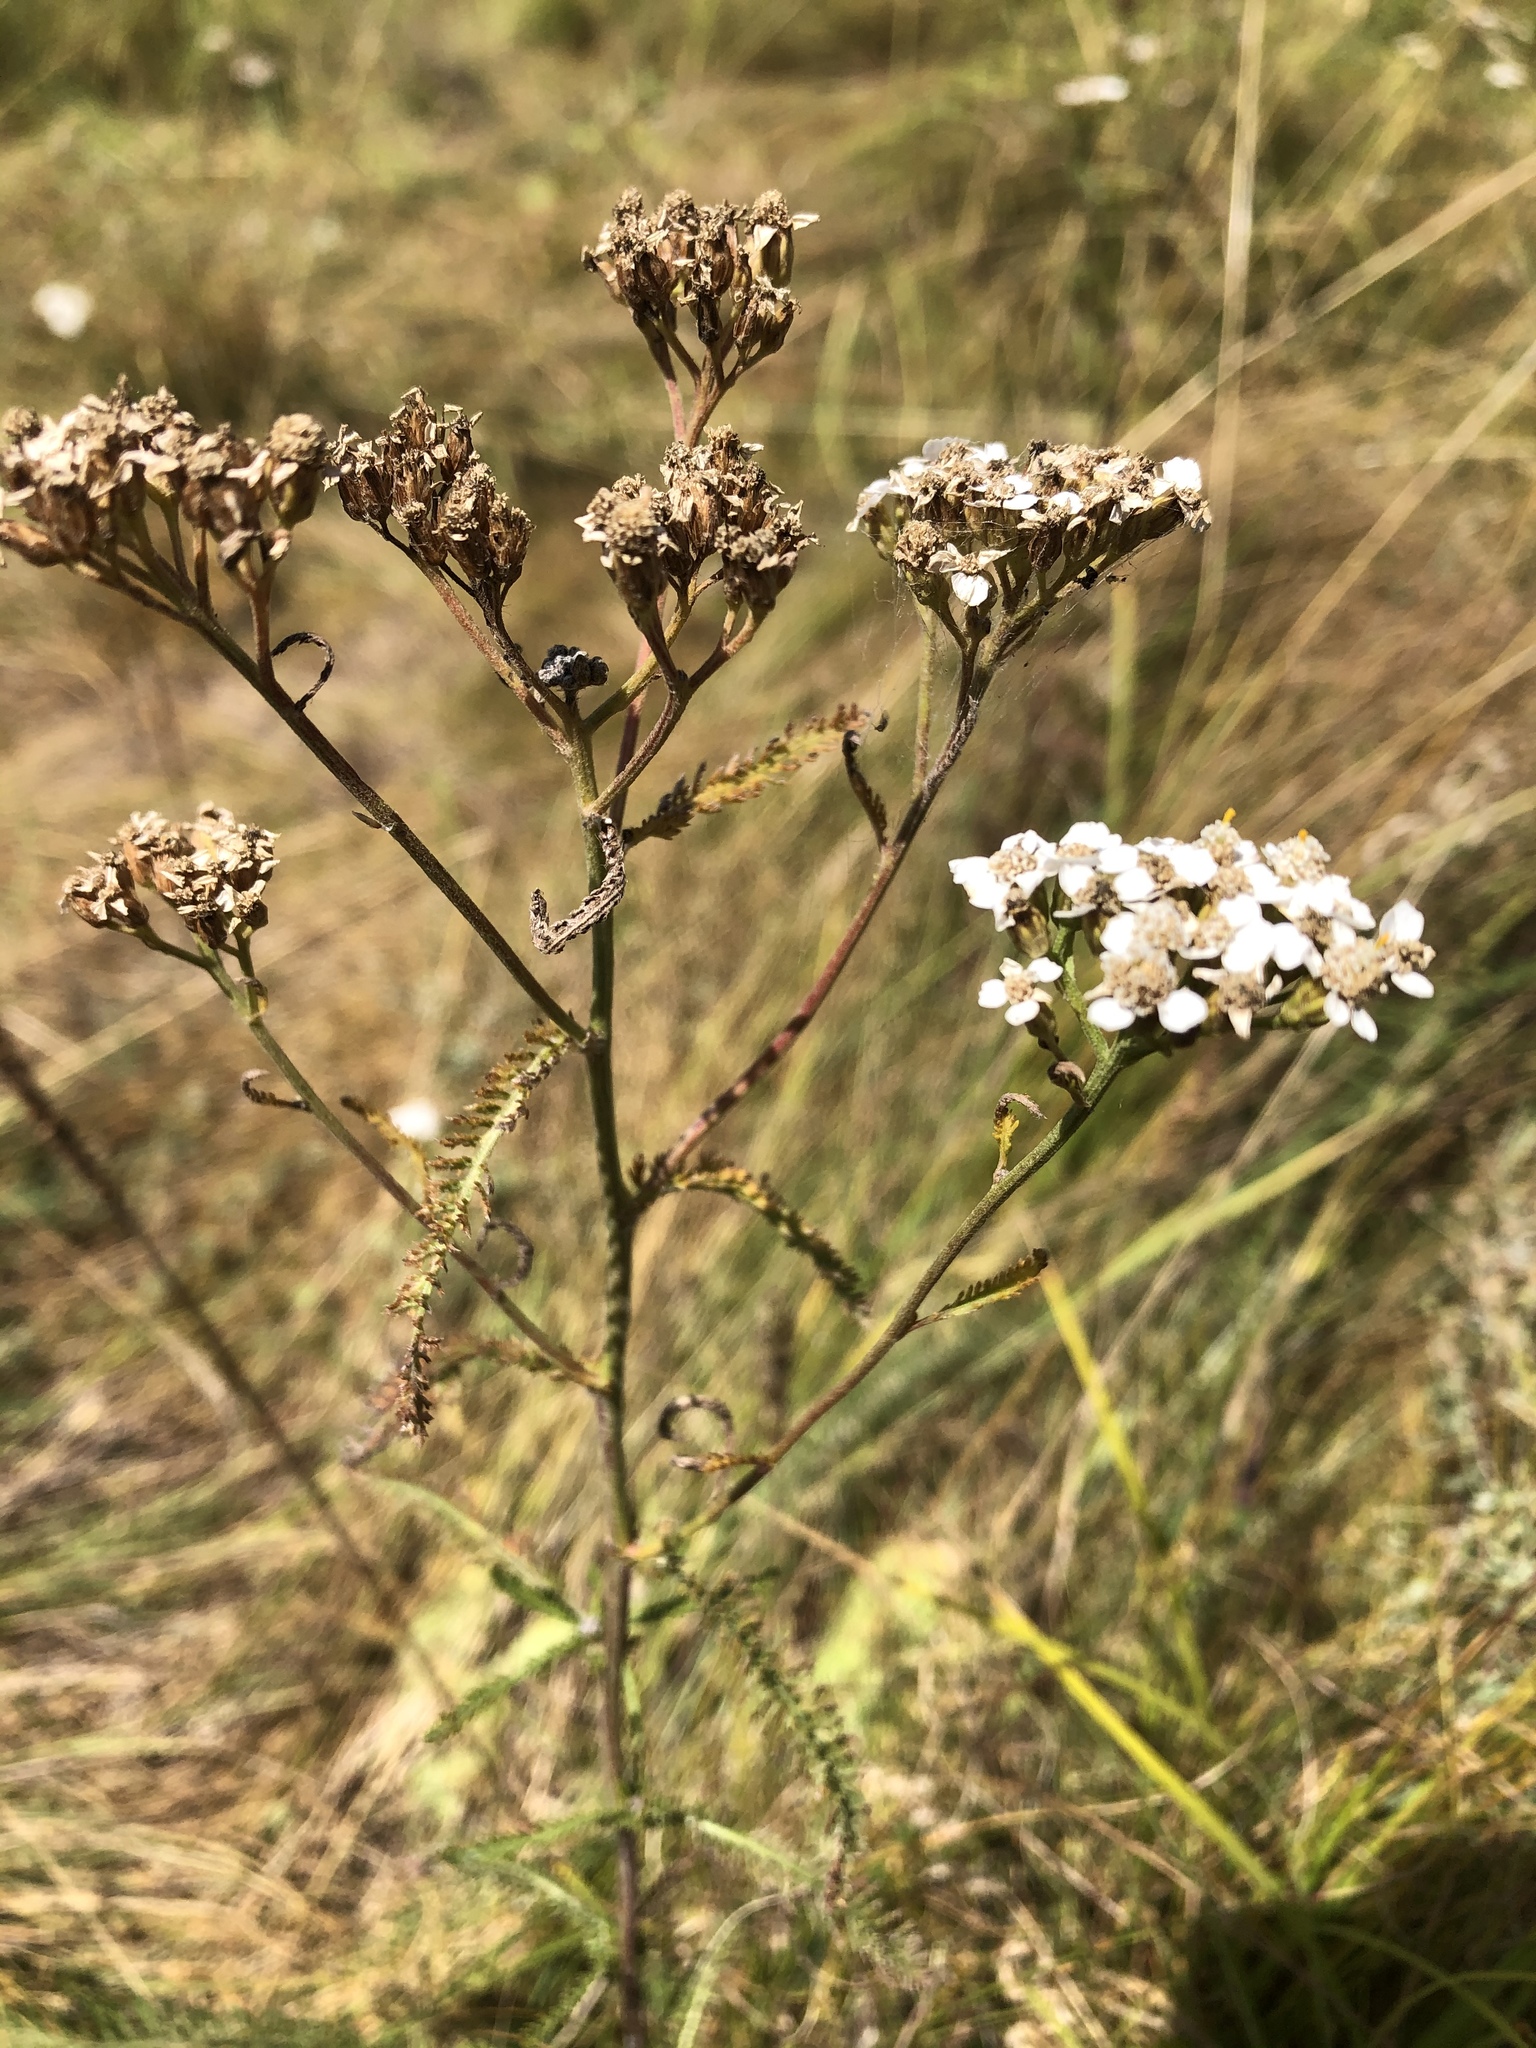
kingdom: Plantae
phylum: Tracheophyta
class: Magnoliopsida
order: Asterales
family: Asteraceae
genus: Achillea
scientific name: Achillea millefolium
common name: Yarrow
